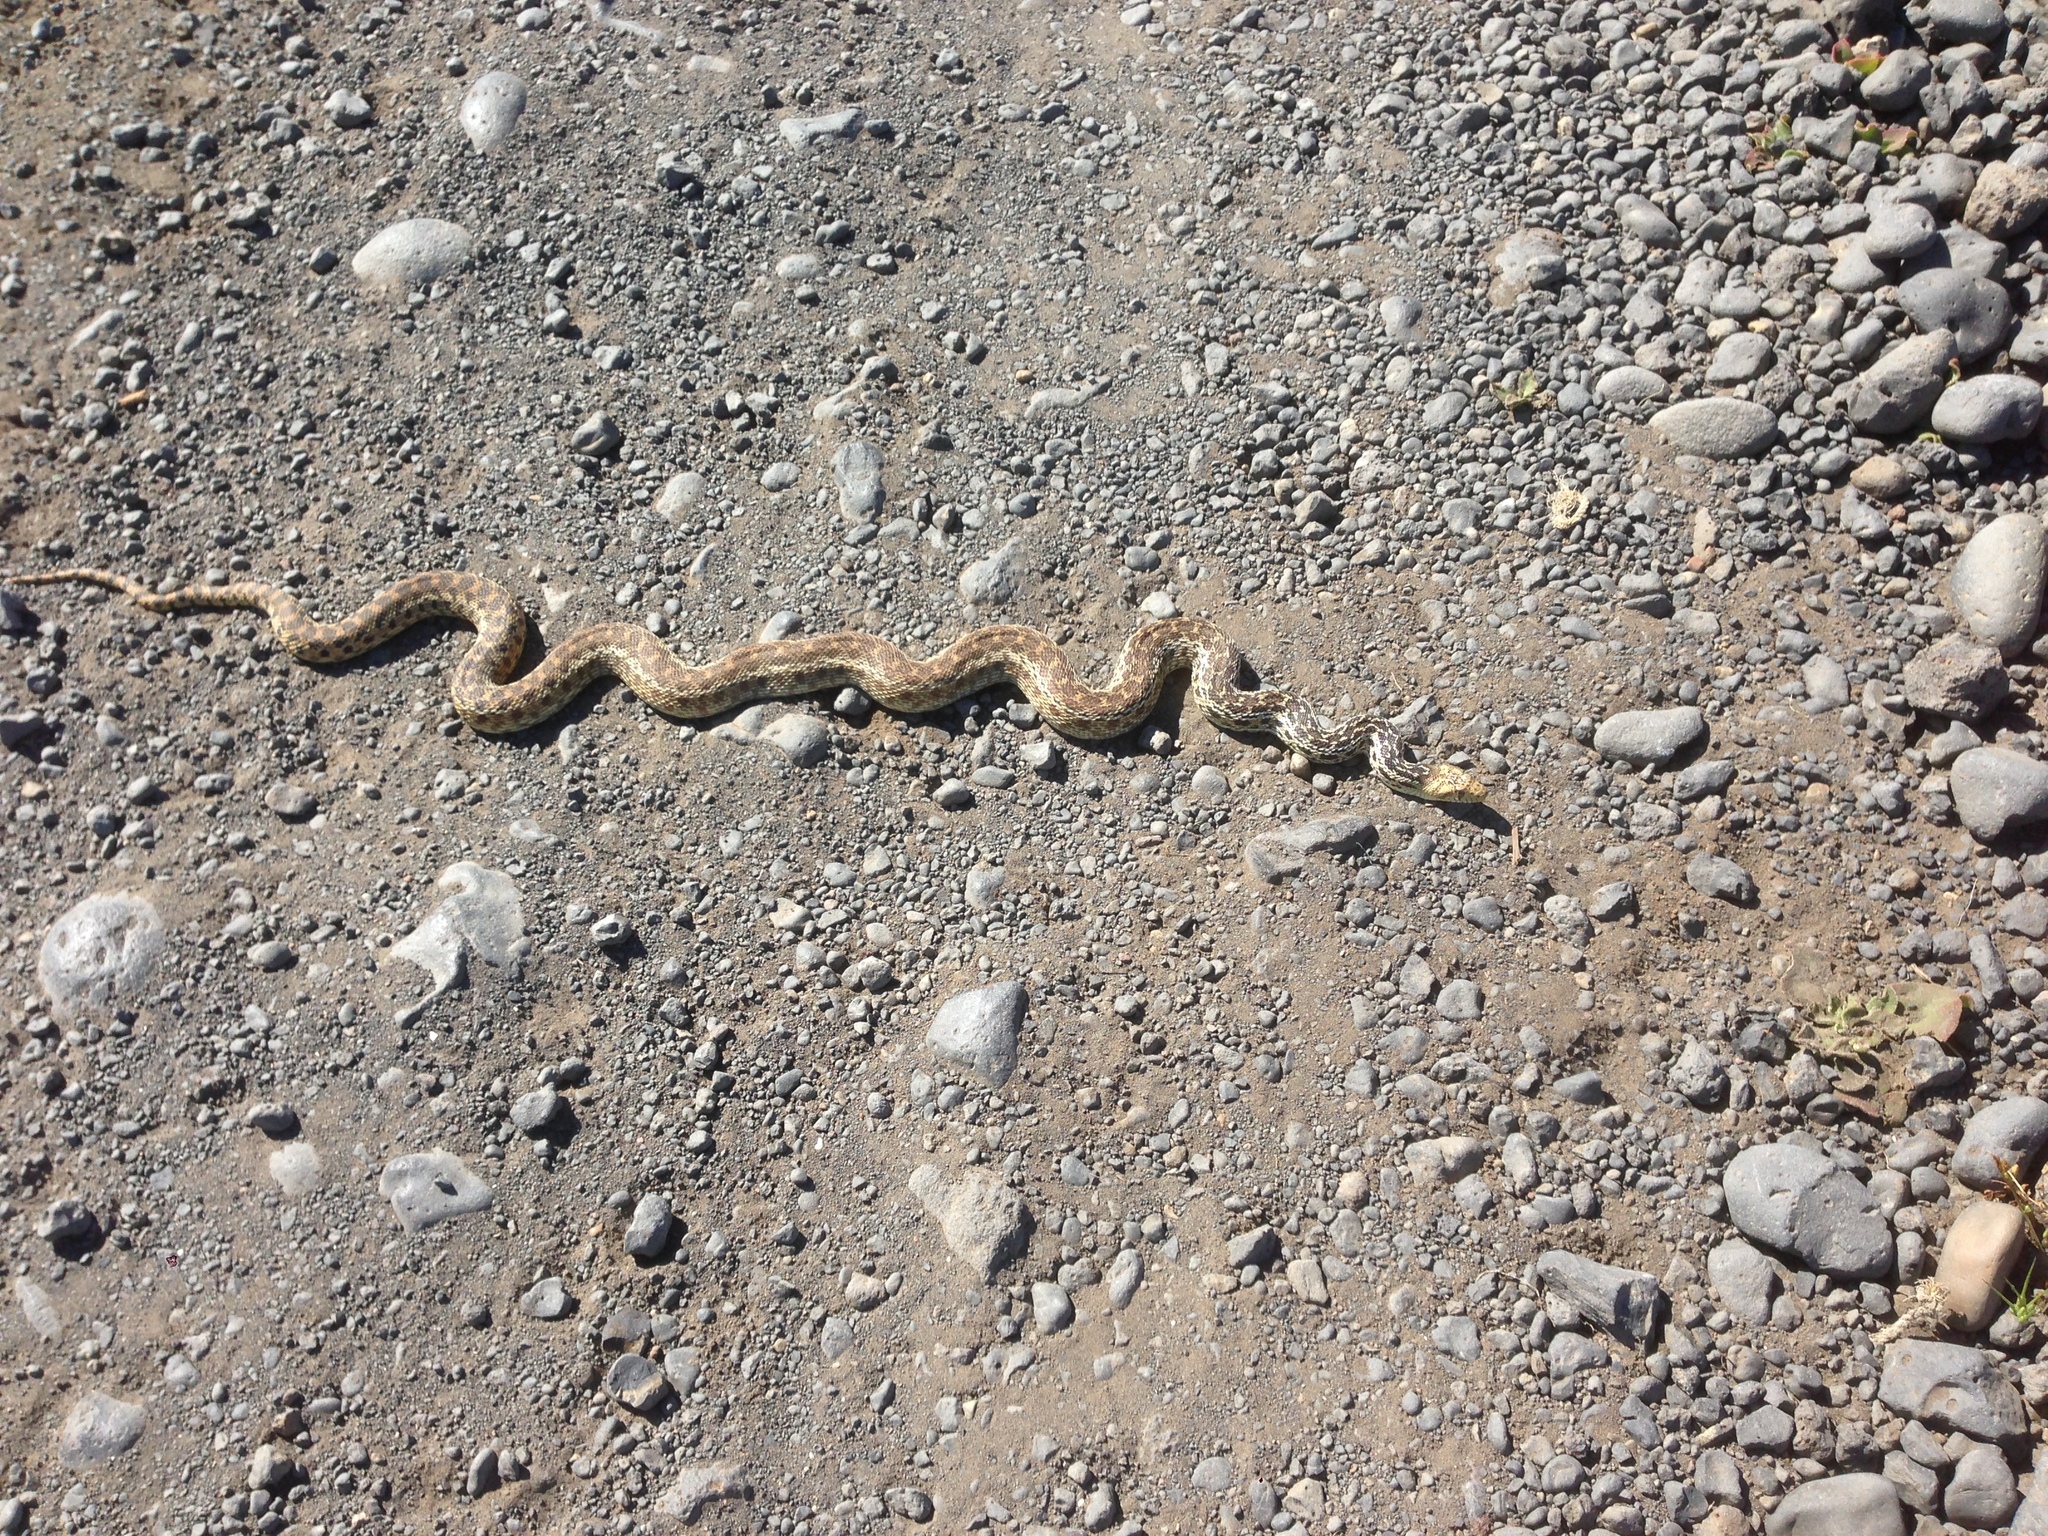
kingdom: Animalia
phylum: Chordata
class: Squamata
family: Colubridae
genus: Pituophis
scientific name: Pituophis catenifer
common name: Gopher snake
